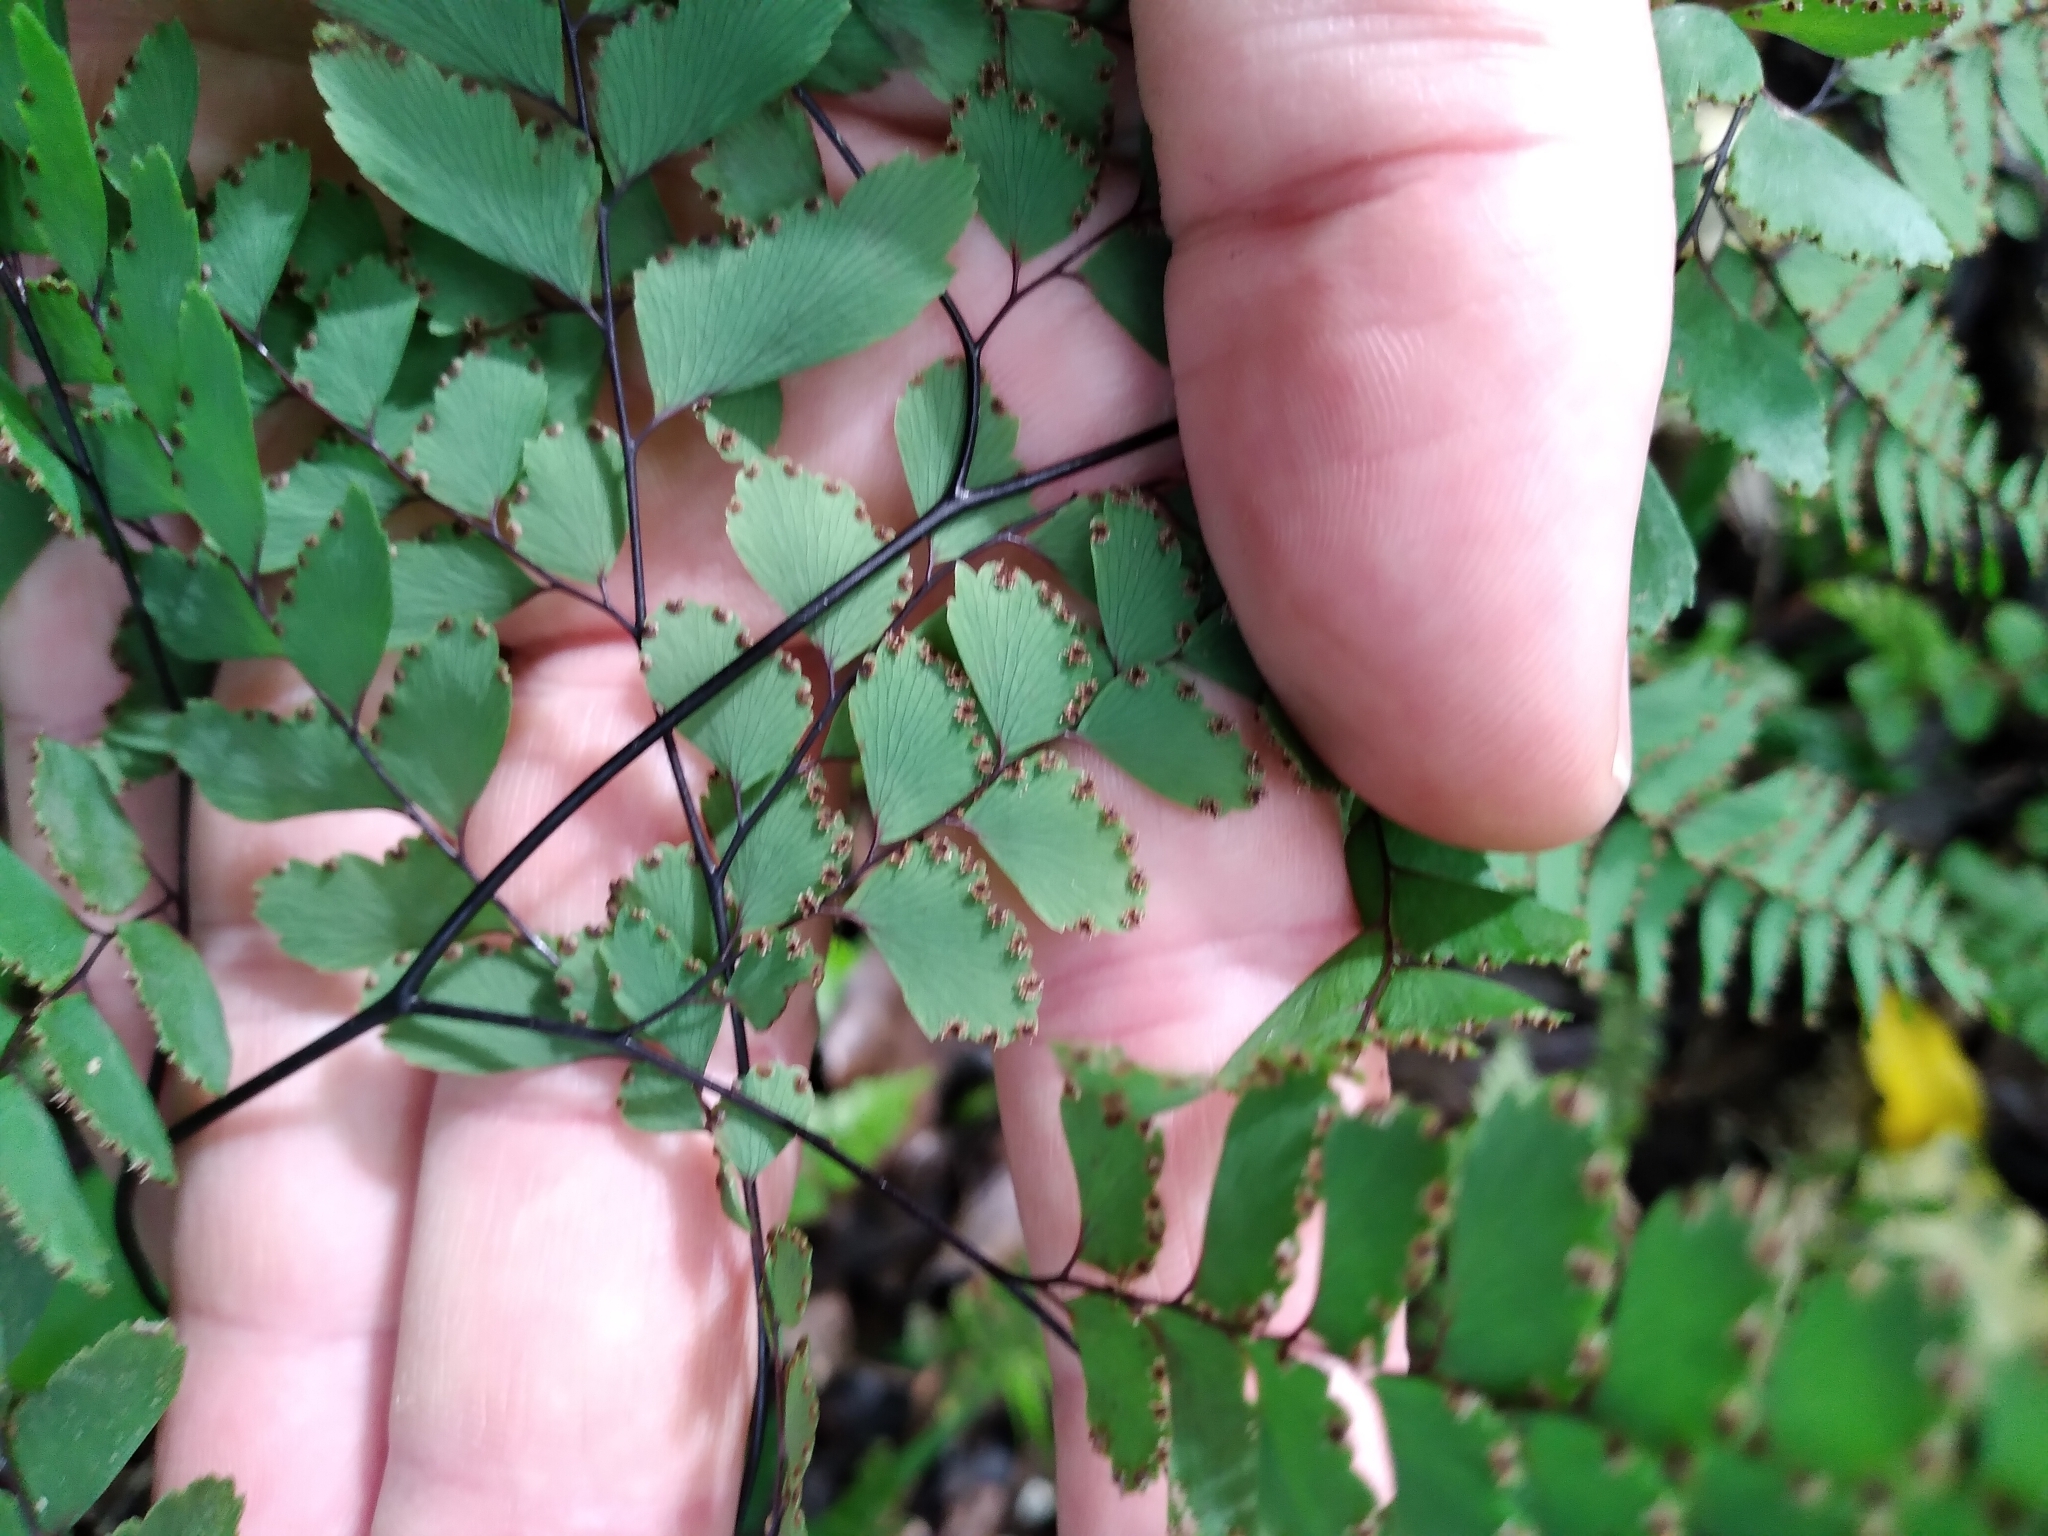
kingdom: Plantae
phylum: Tracheophyta
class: Polypodiopsida
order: Polypodiales
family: Pteridaceae
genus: Adiantum
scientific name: Adiantum cunninghamii
